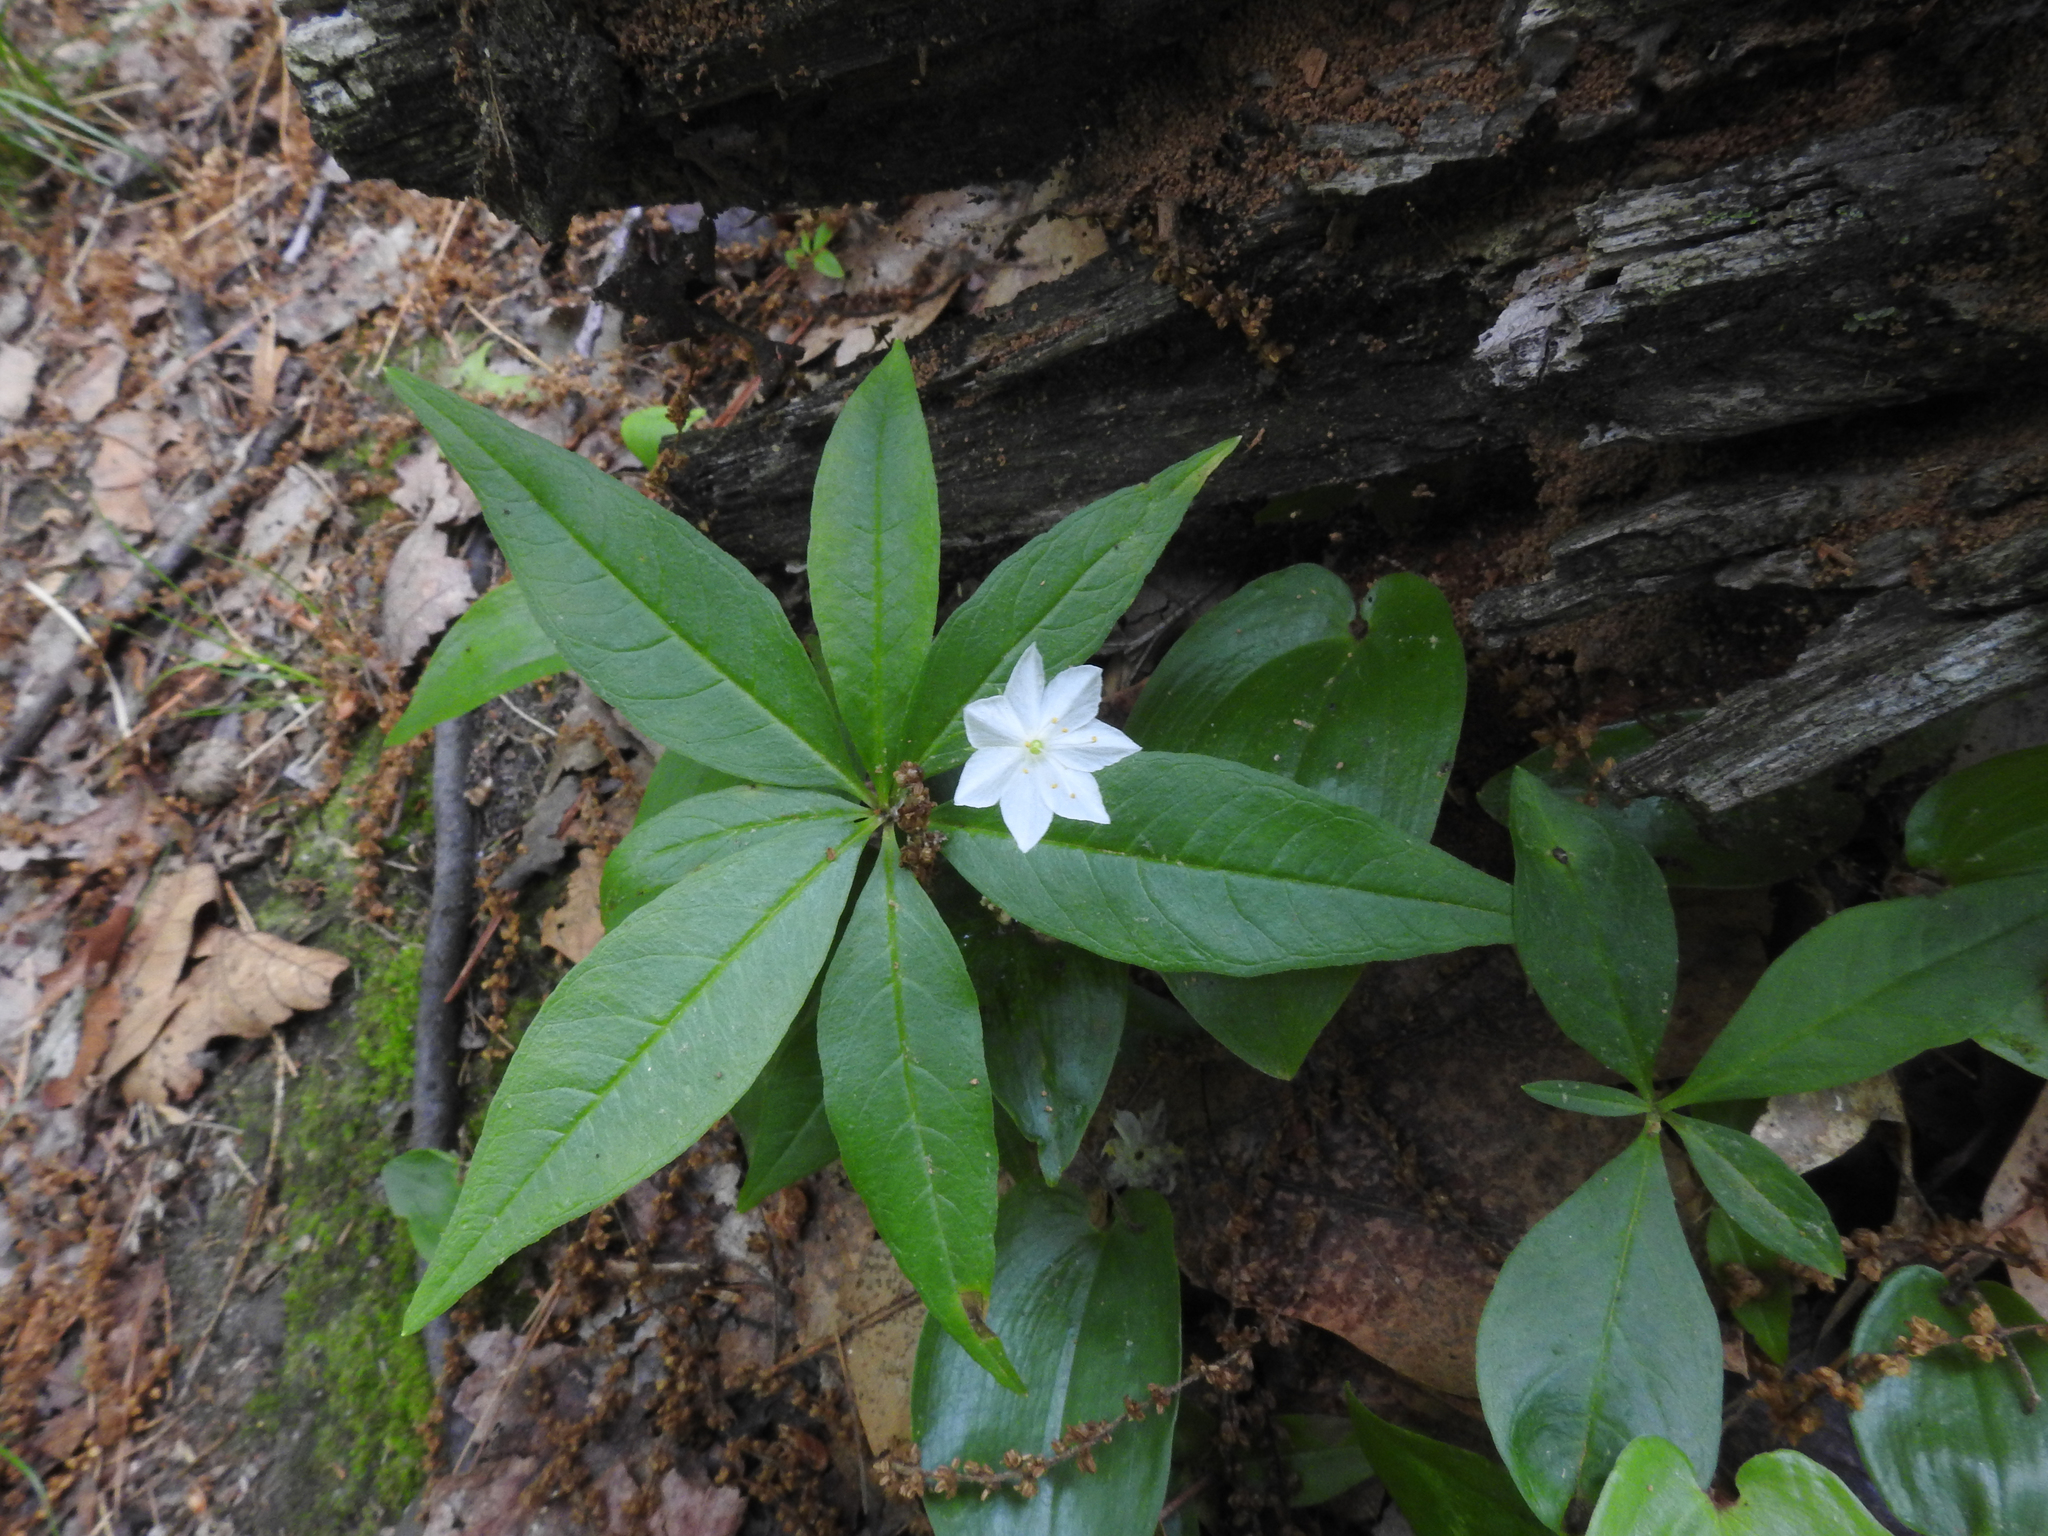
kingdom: Plantae
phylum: Tracheophyta
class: Magnoliopsida
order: Ericales
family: Primulaceae
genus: Lysimachia
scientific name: Lysimachia borealis
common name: American starflower
